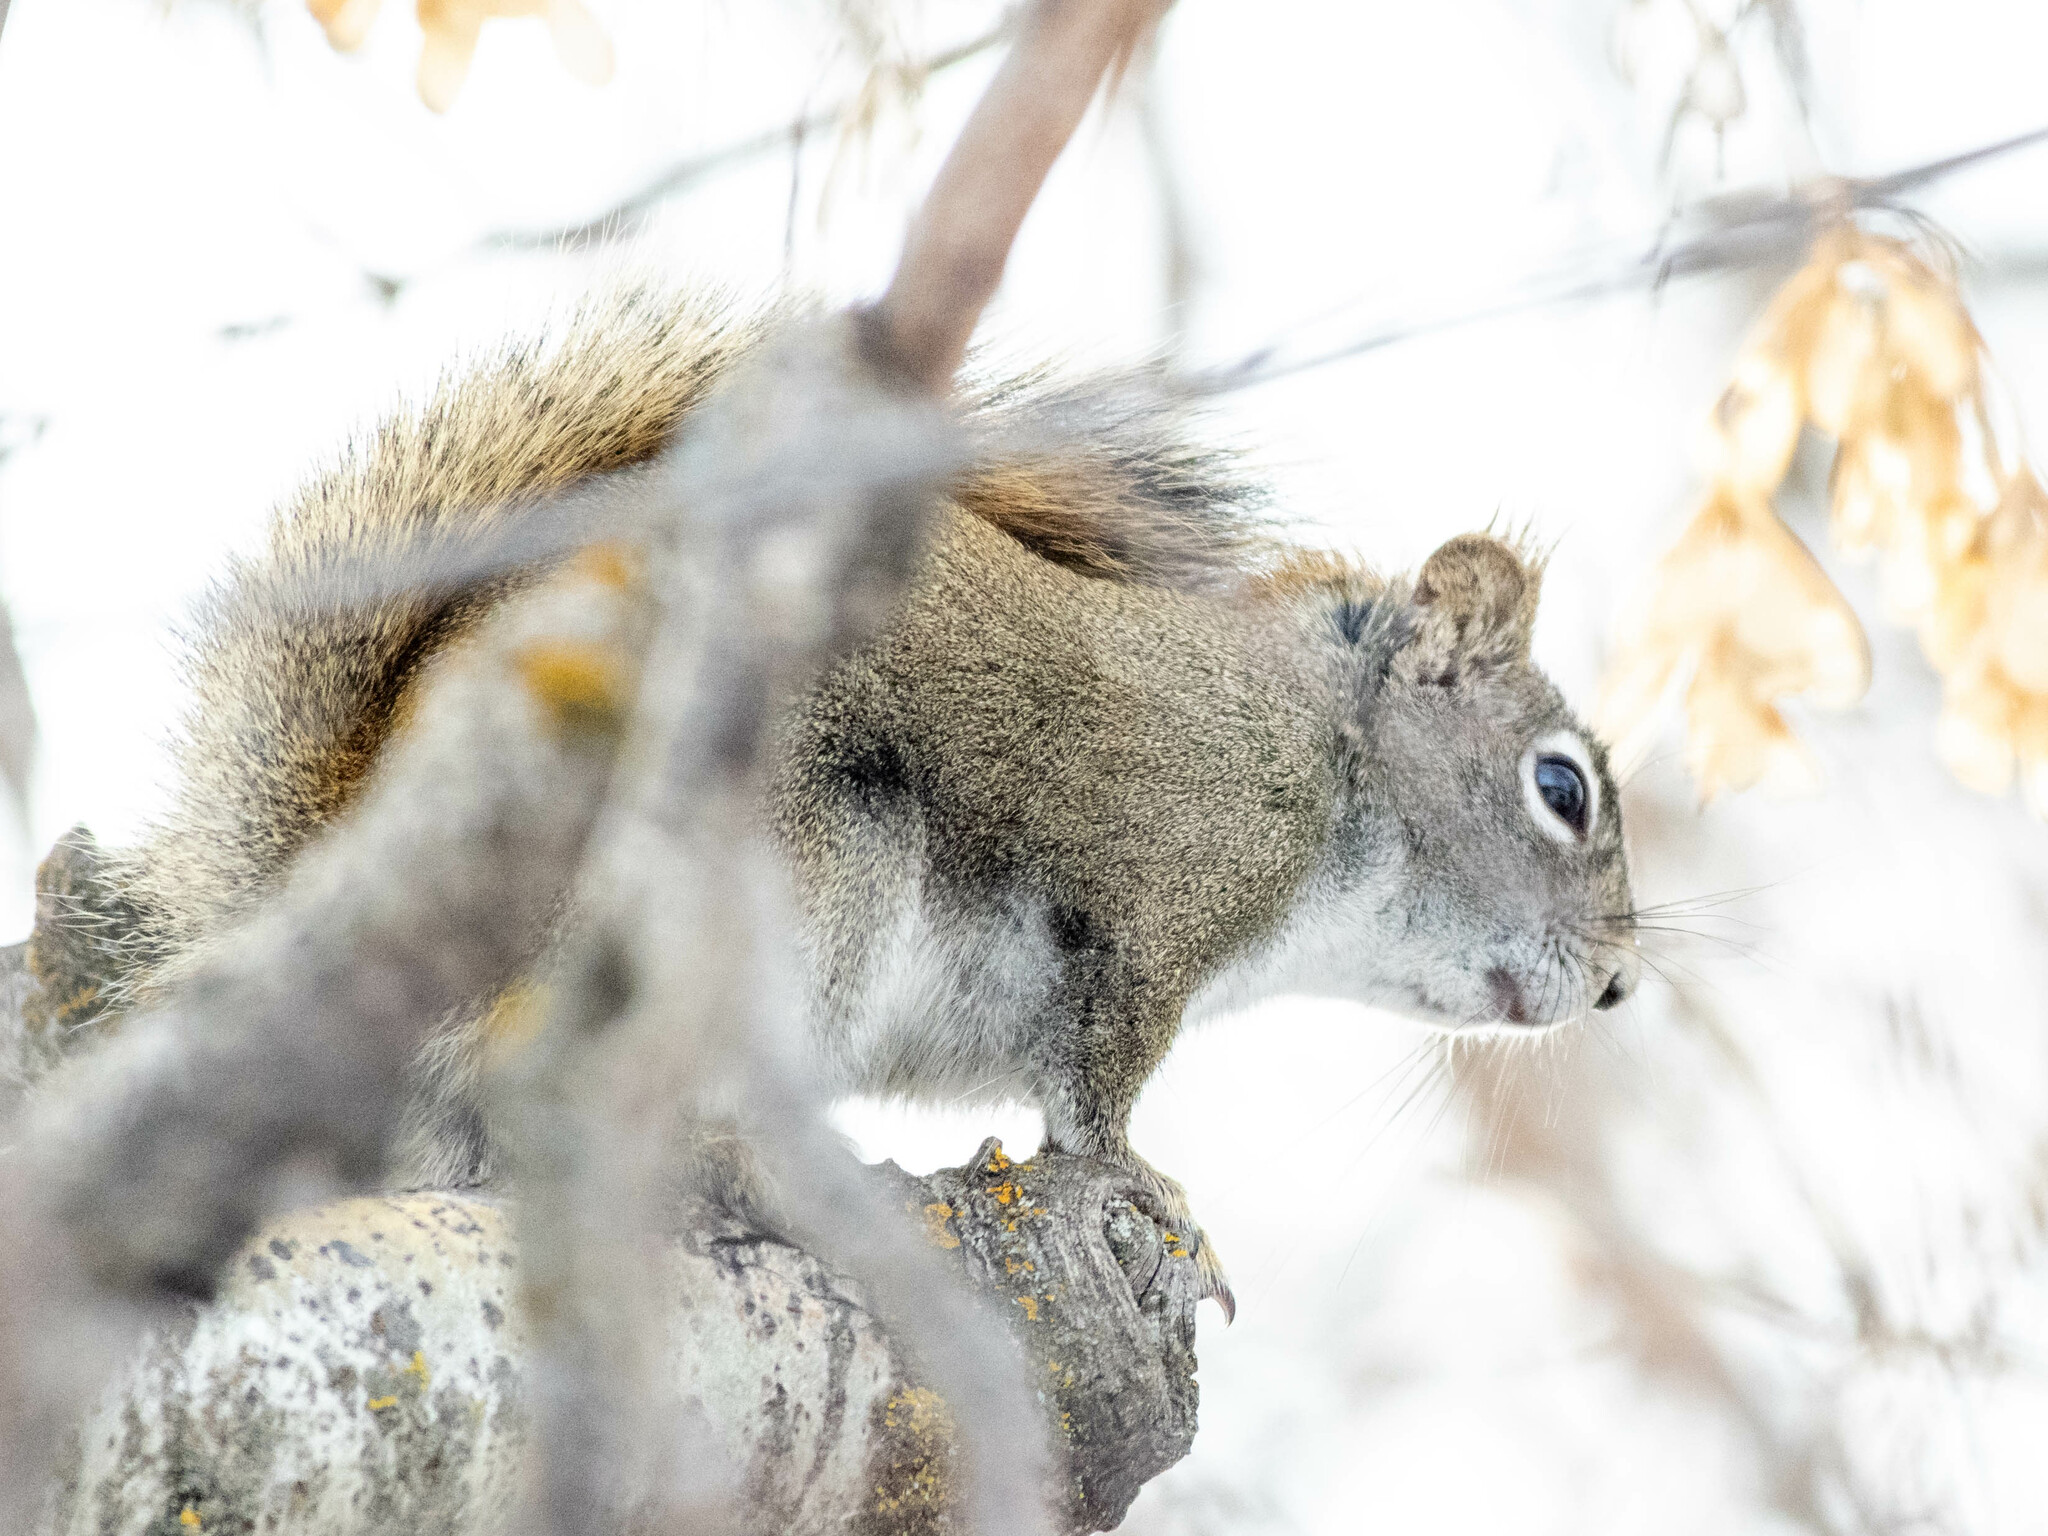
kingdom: Animalia
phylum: Chordata
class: Mammalia
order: Rodentia
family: Sciuridae
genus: Tamiasciurus
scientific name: Tamiasciurus hudsonicus
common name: Red squirrel
